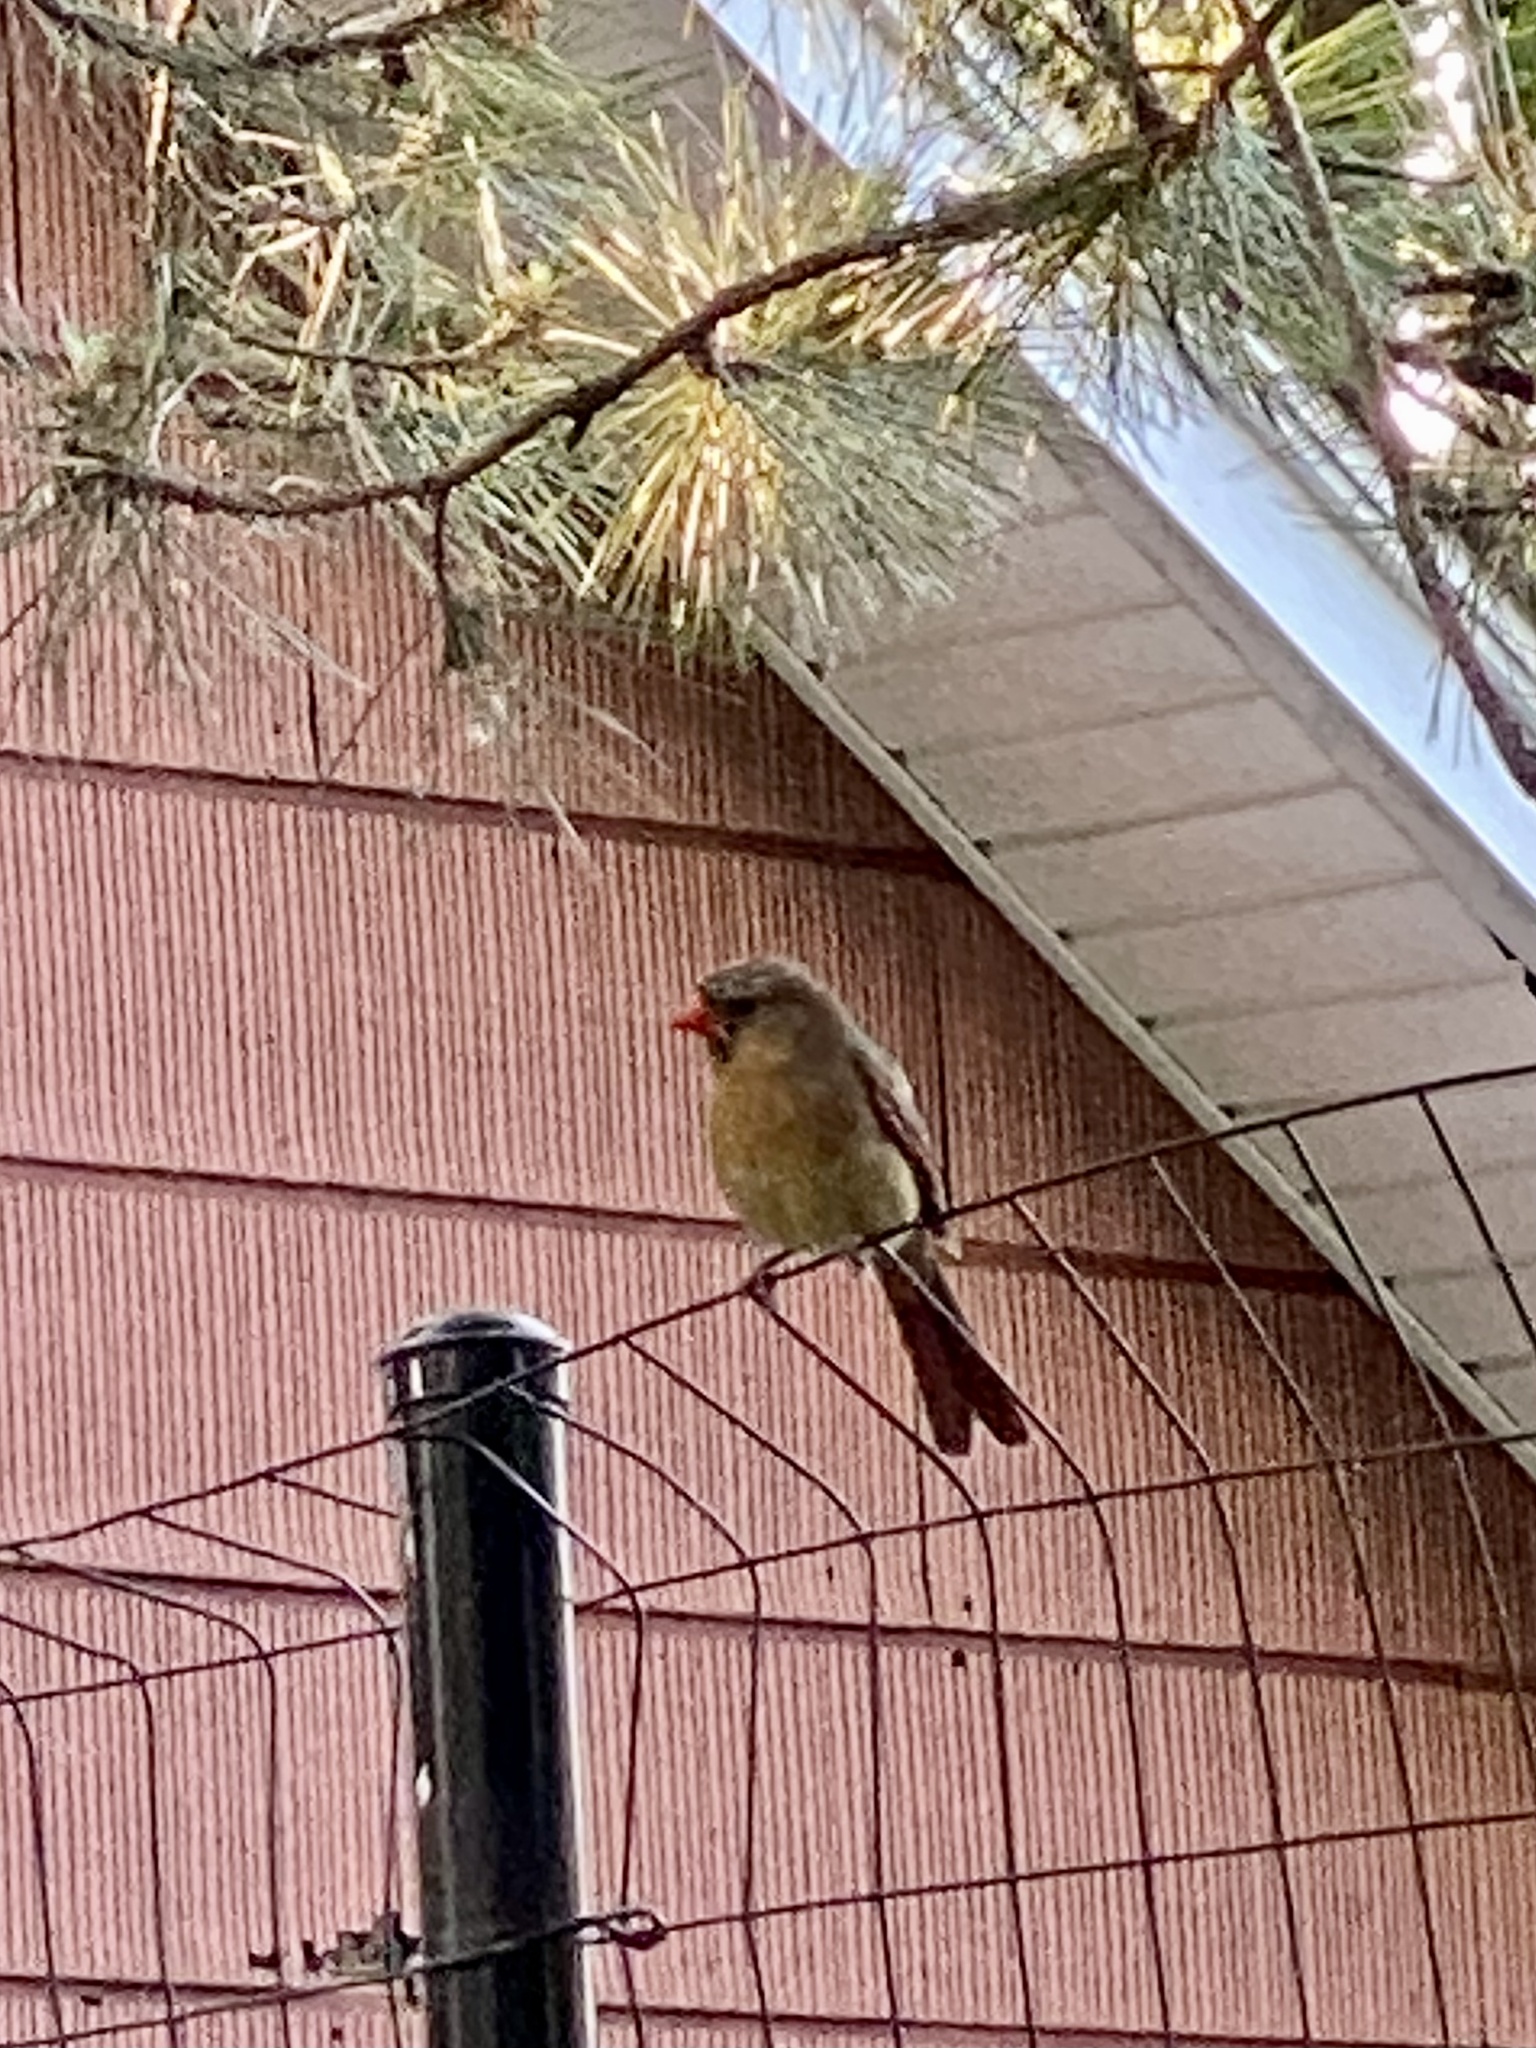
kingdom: Animalia
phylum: Chordata
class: Aves
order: Passeriformes
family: Cardinalidae
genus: Cardinalis
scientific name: Cardinalis cardinalis
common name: Northern cardinal
